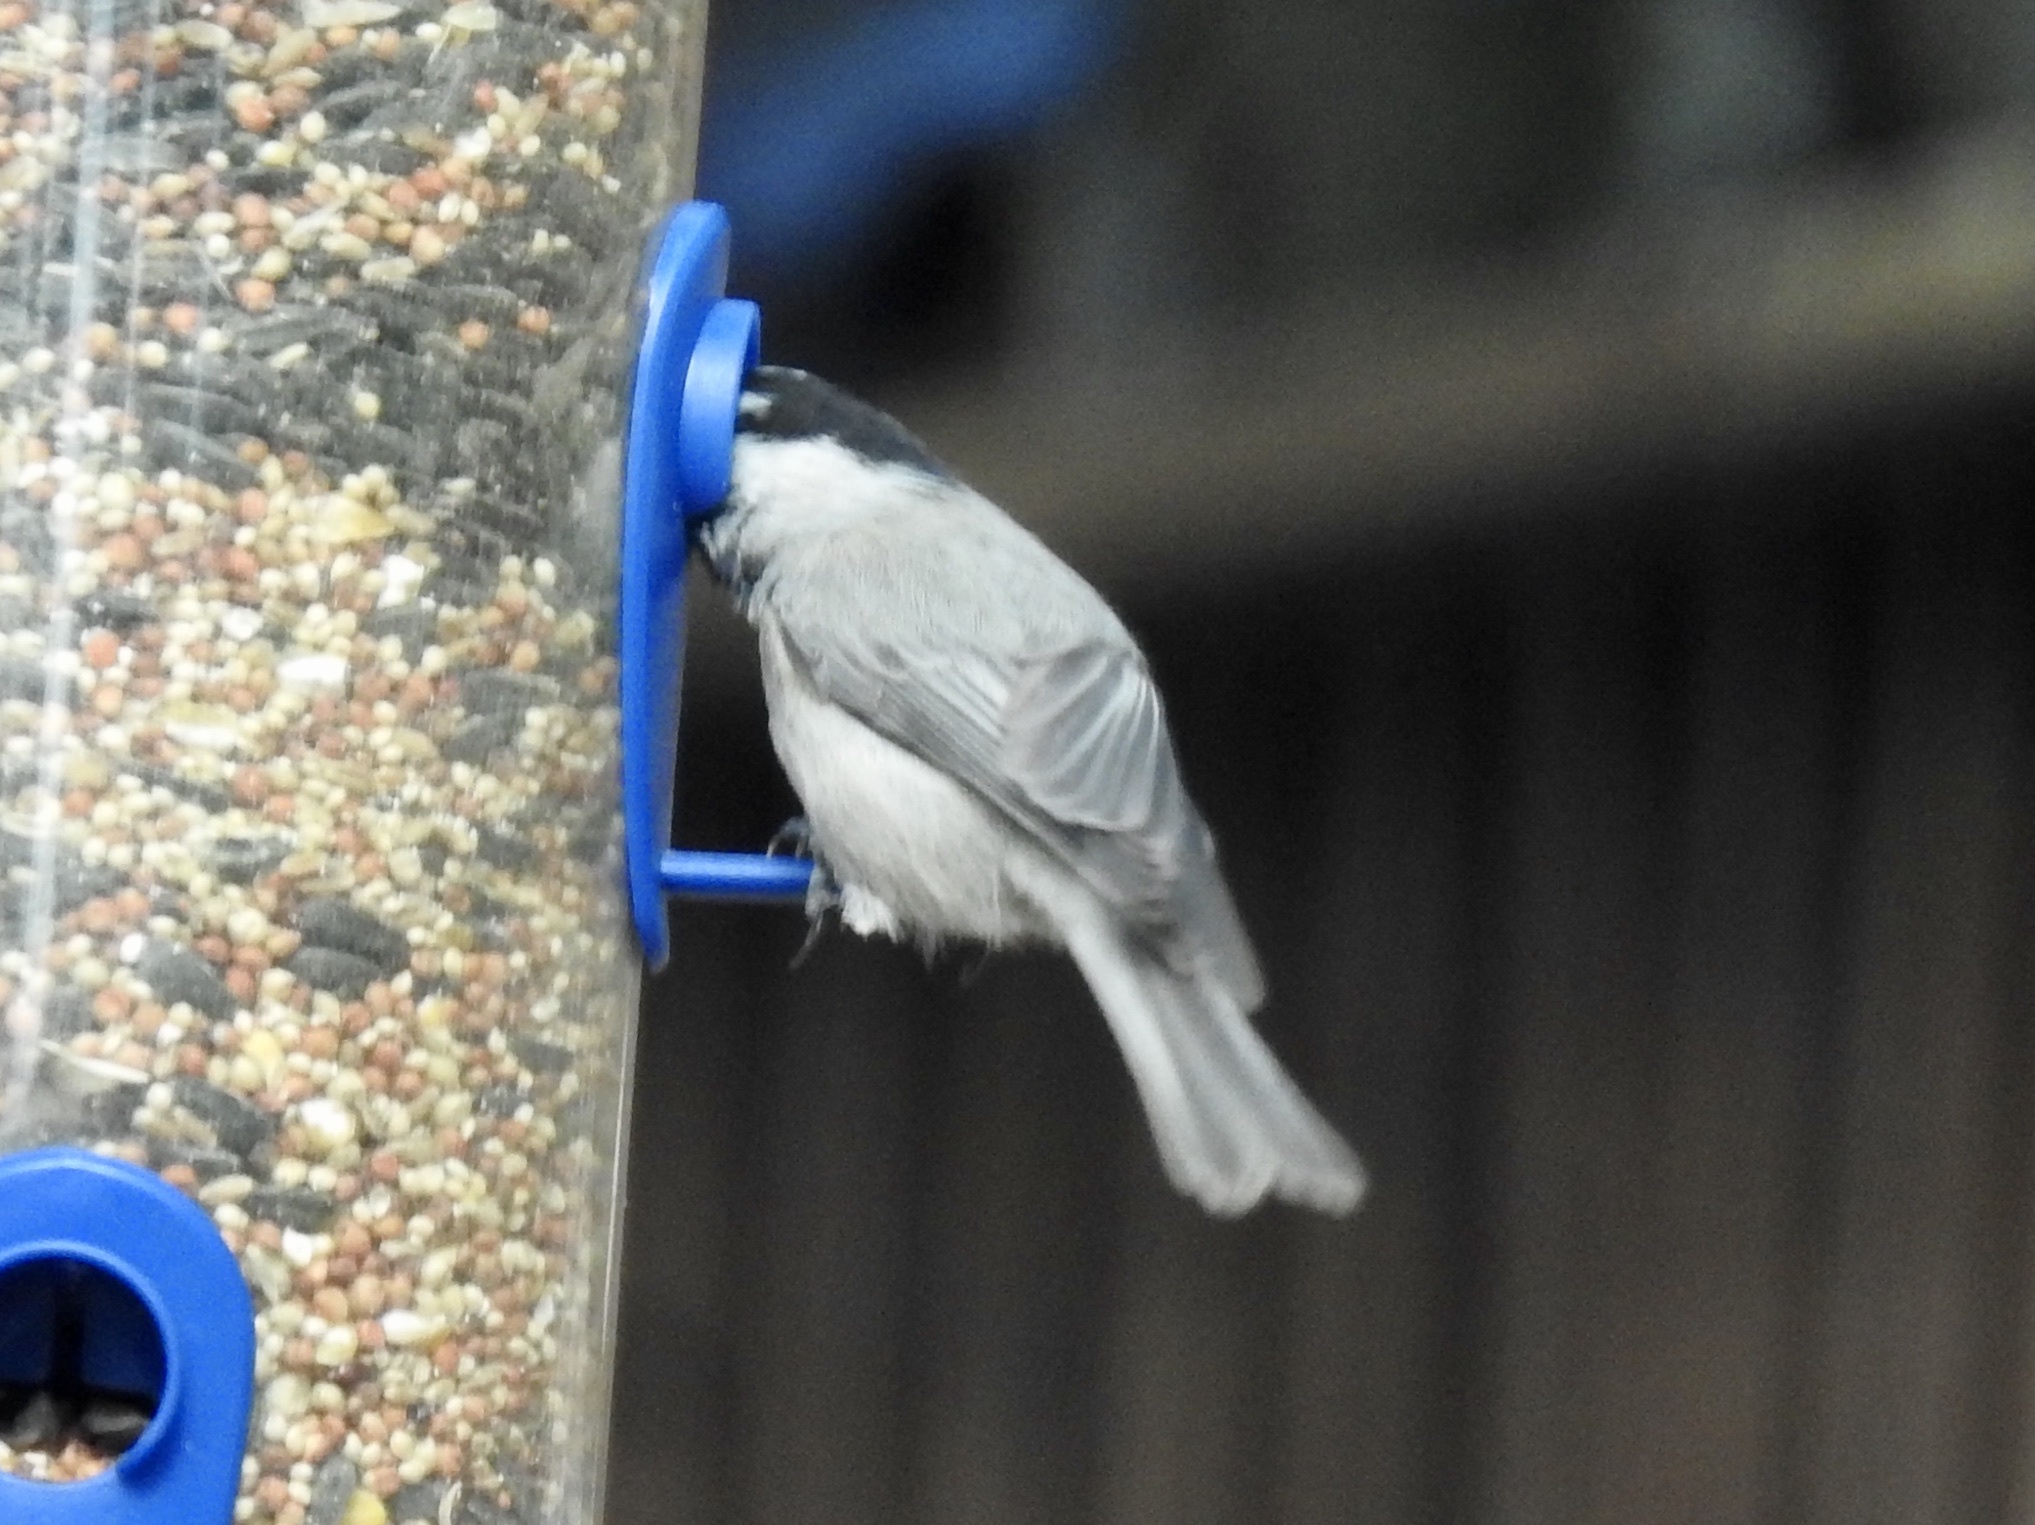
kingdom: Animalia
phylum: Chordata
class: Aves
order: Passeriformes
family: Paridae
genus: Poecile
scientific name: Poecile gambeli
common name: Mountain chickadee
